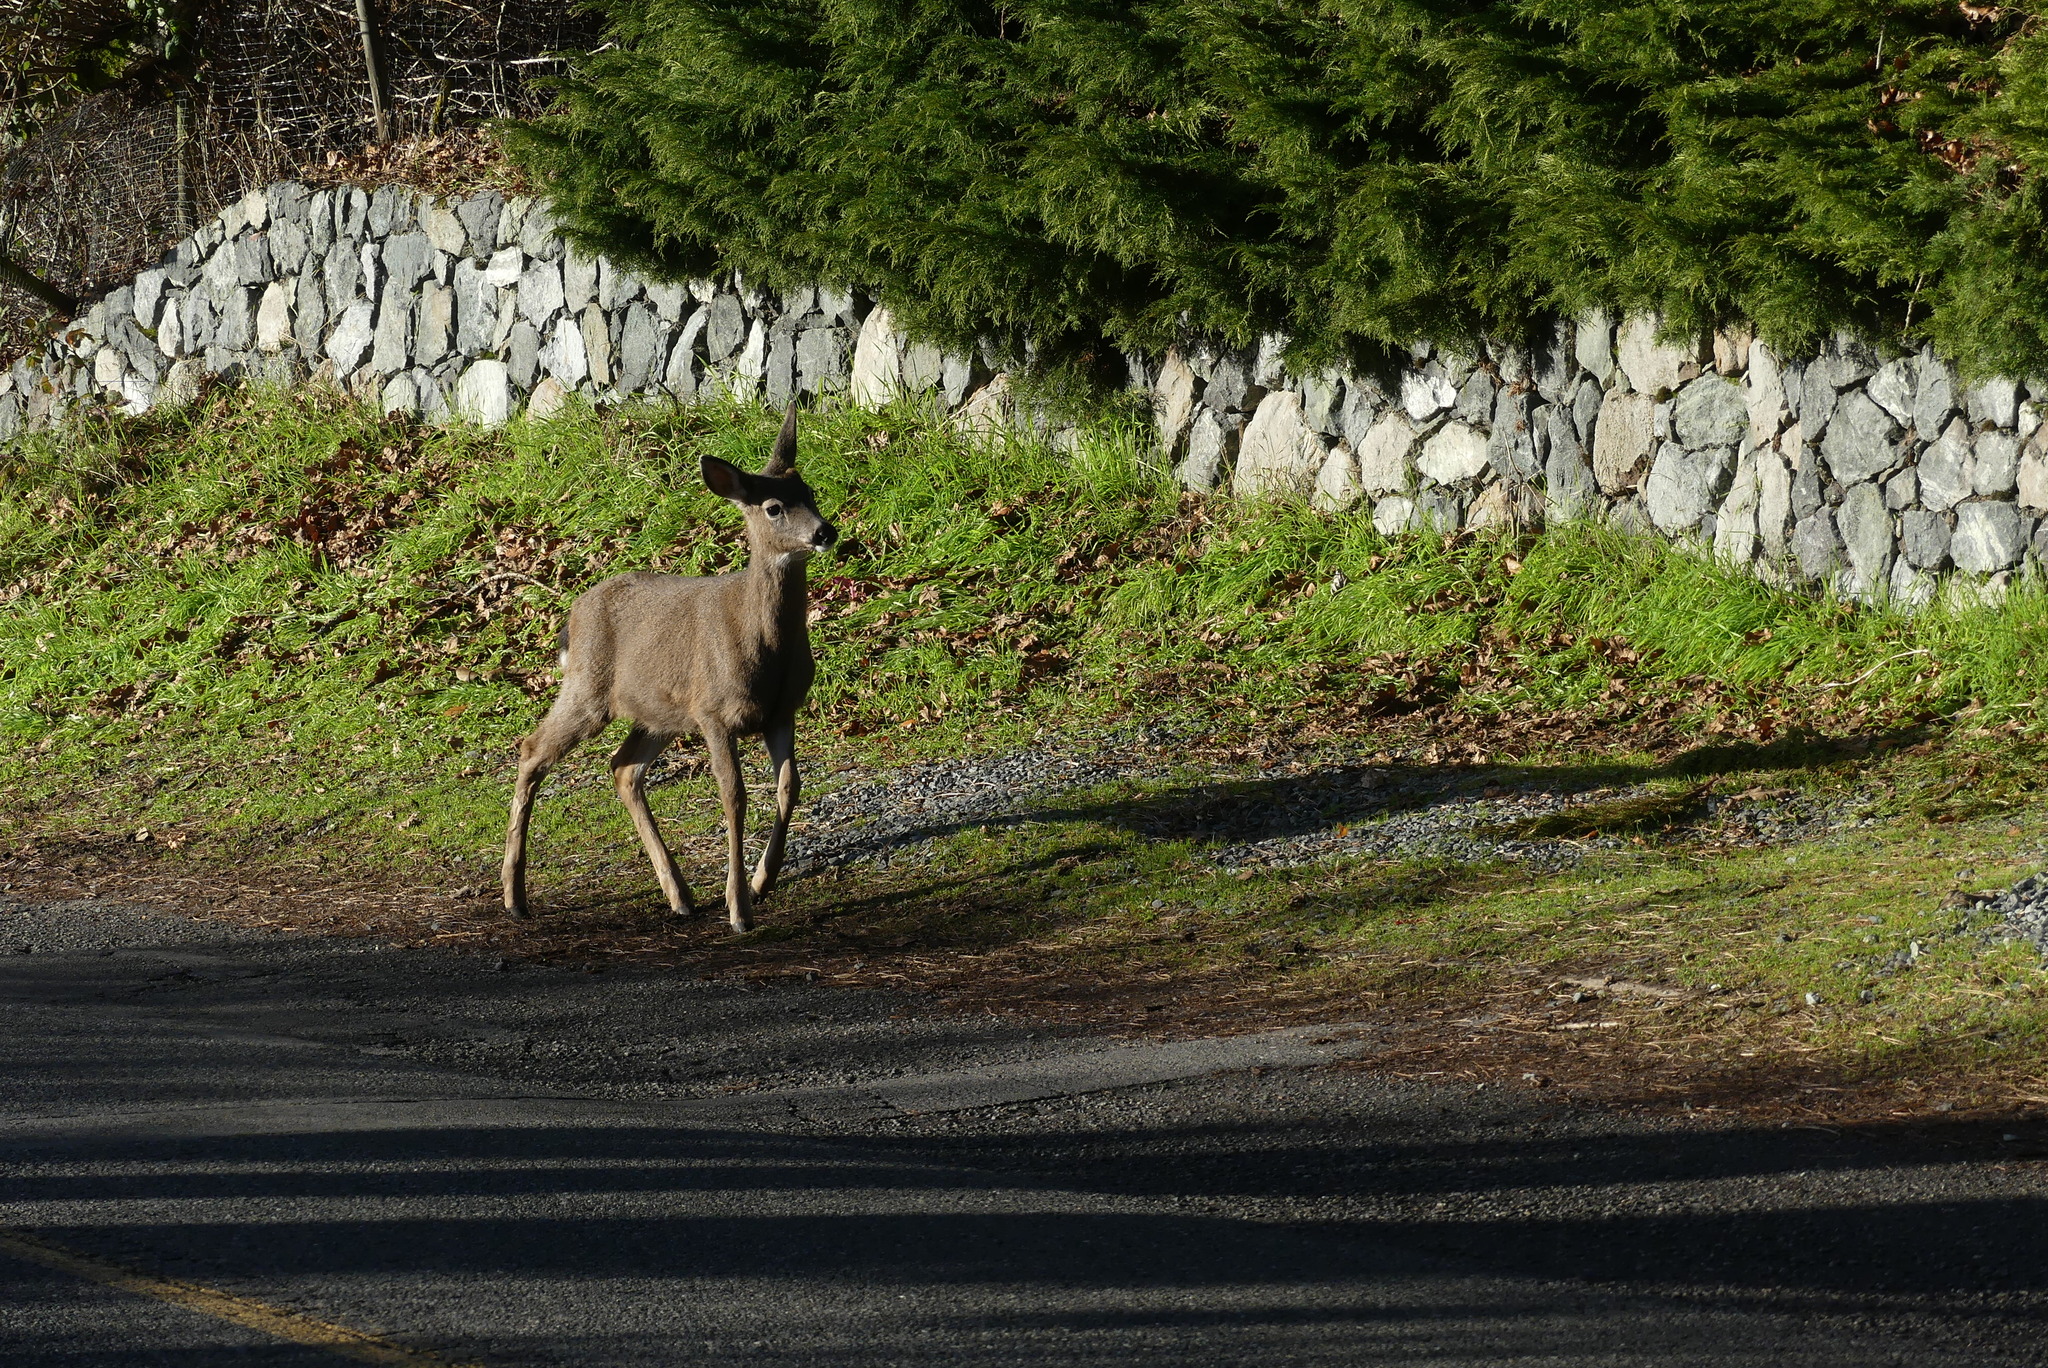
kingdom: Animalia
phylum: Chordata
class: Mammalia
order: Artiodactyla
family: Cervidae
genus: Odocoileus
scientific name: Odocoileus hemionus
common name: Mule deer
